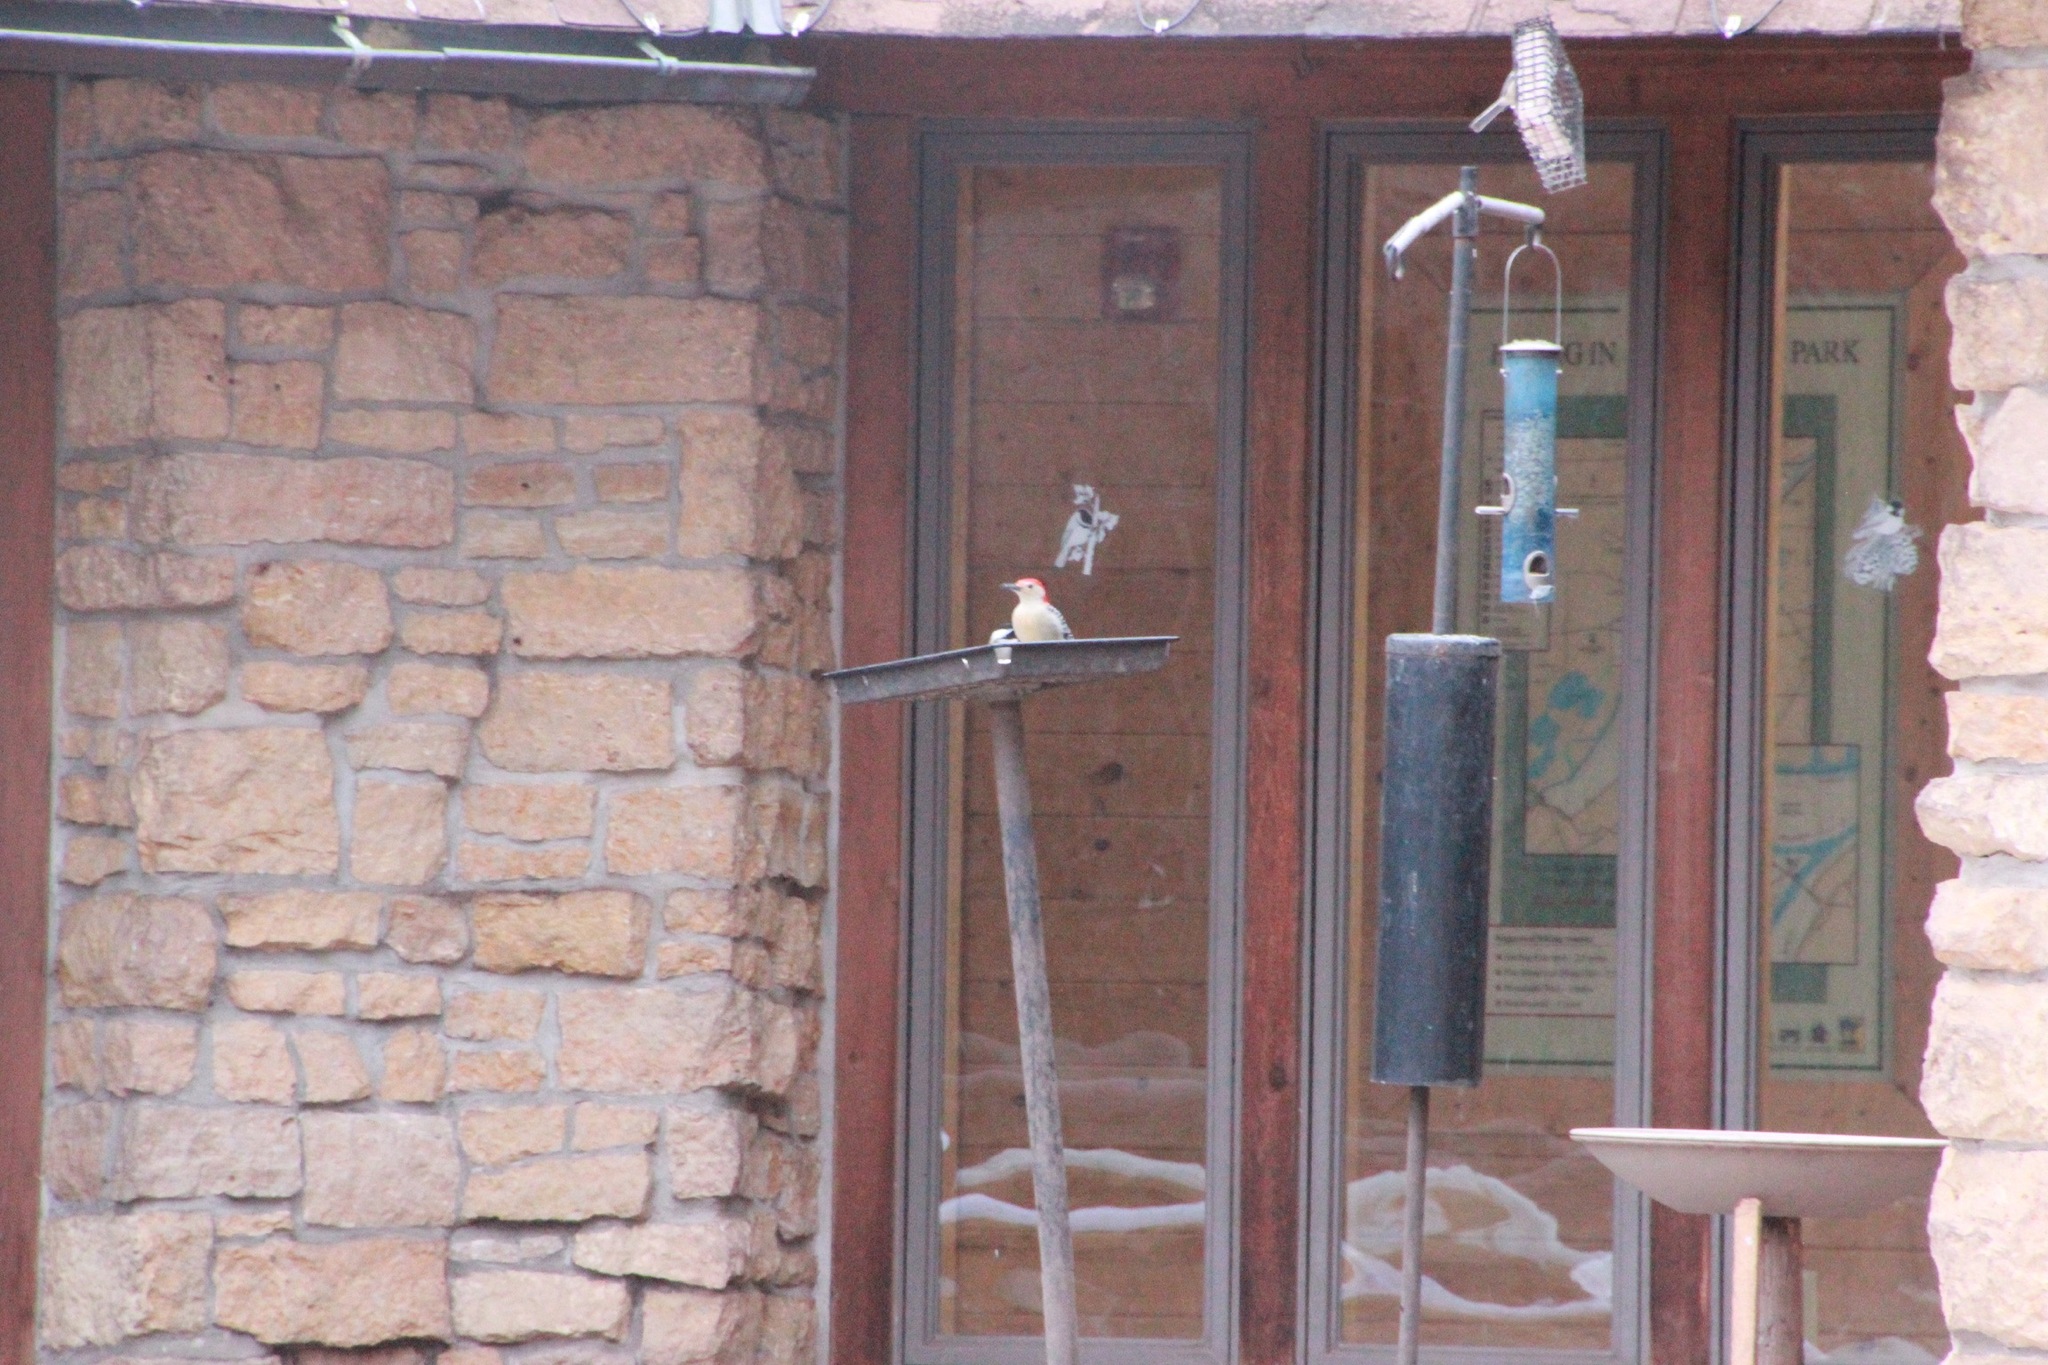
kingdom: Animalia
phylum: Chordata
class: Aves
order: Piciformes
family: Picidae
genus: Melanerpes
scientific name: Melanerpes carolinus
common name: Red-bellied woodpecker
